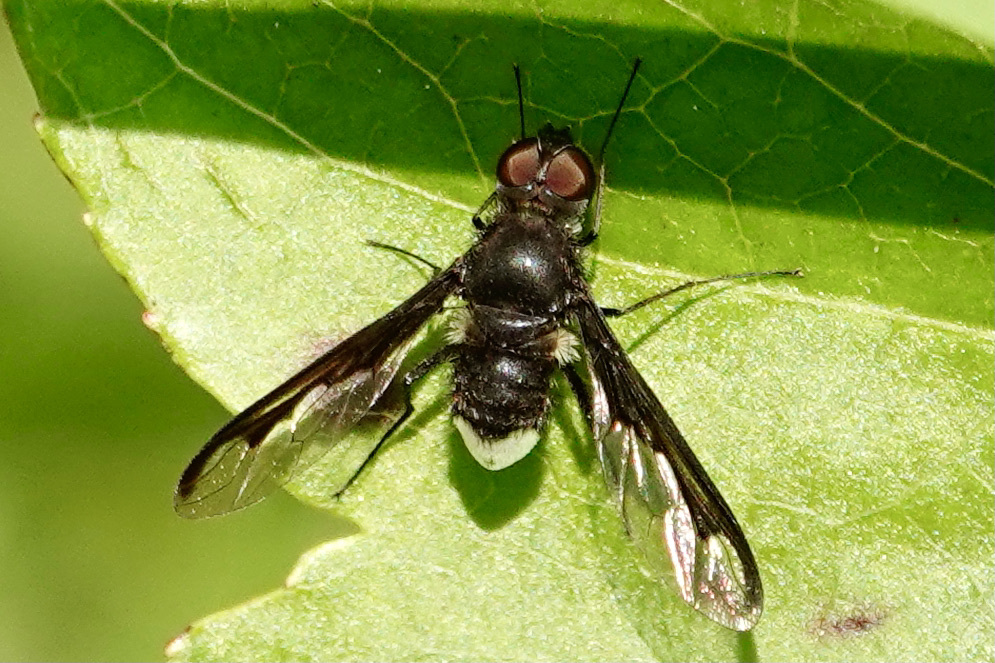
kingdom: Animalia
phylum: Arthropoda
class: Insecta
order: Diptera
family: Bombyliidae
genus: Anthrax
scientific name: Anthrax argyropygus
